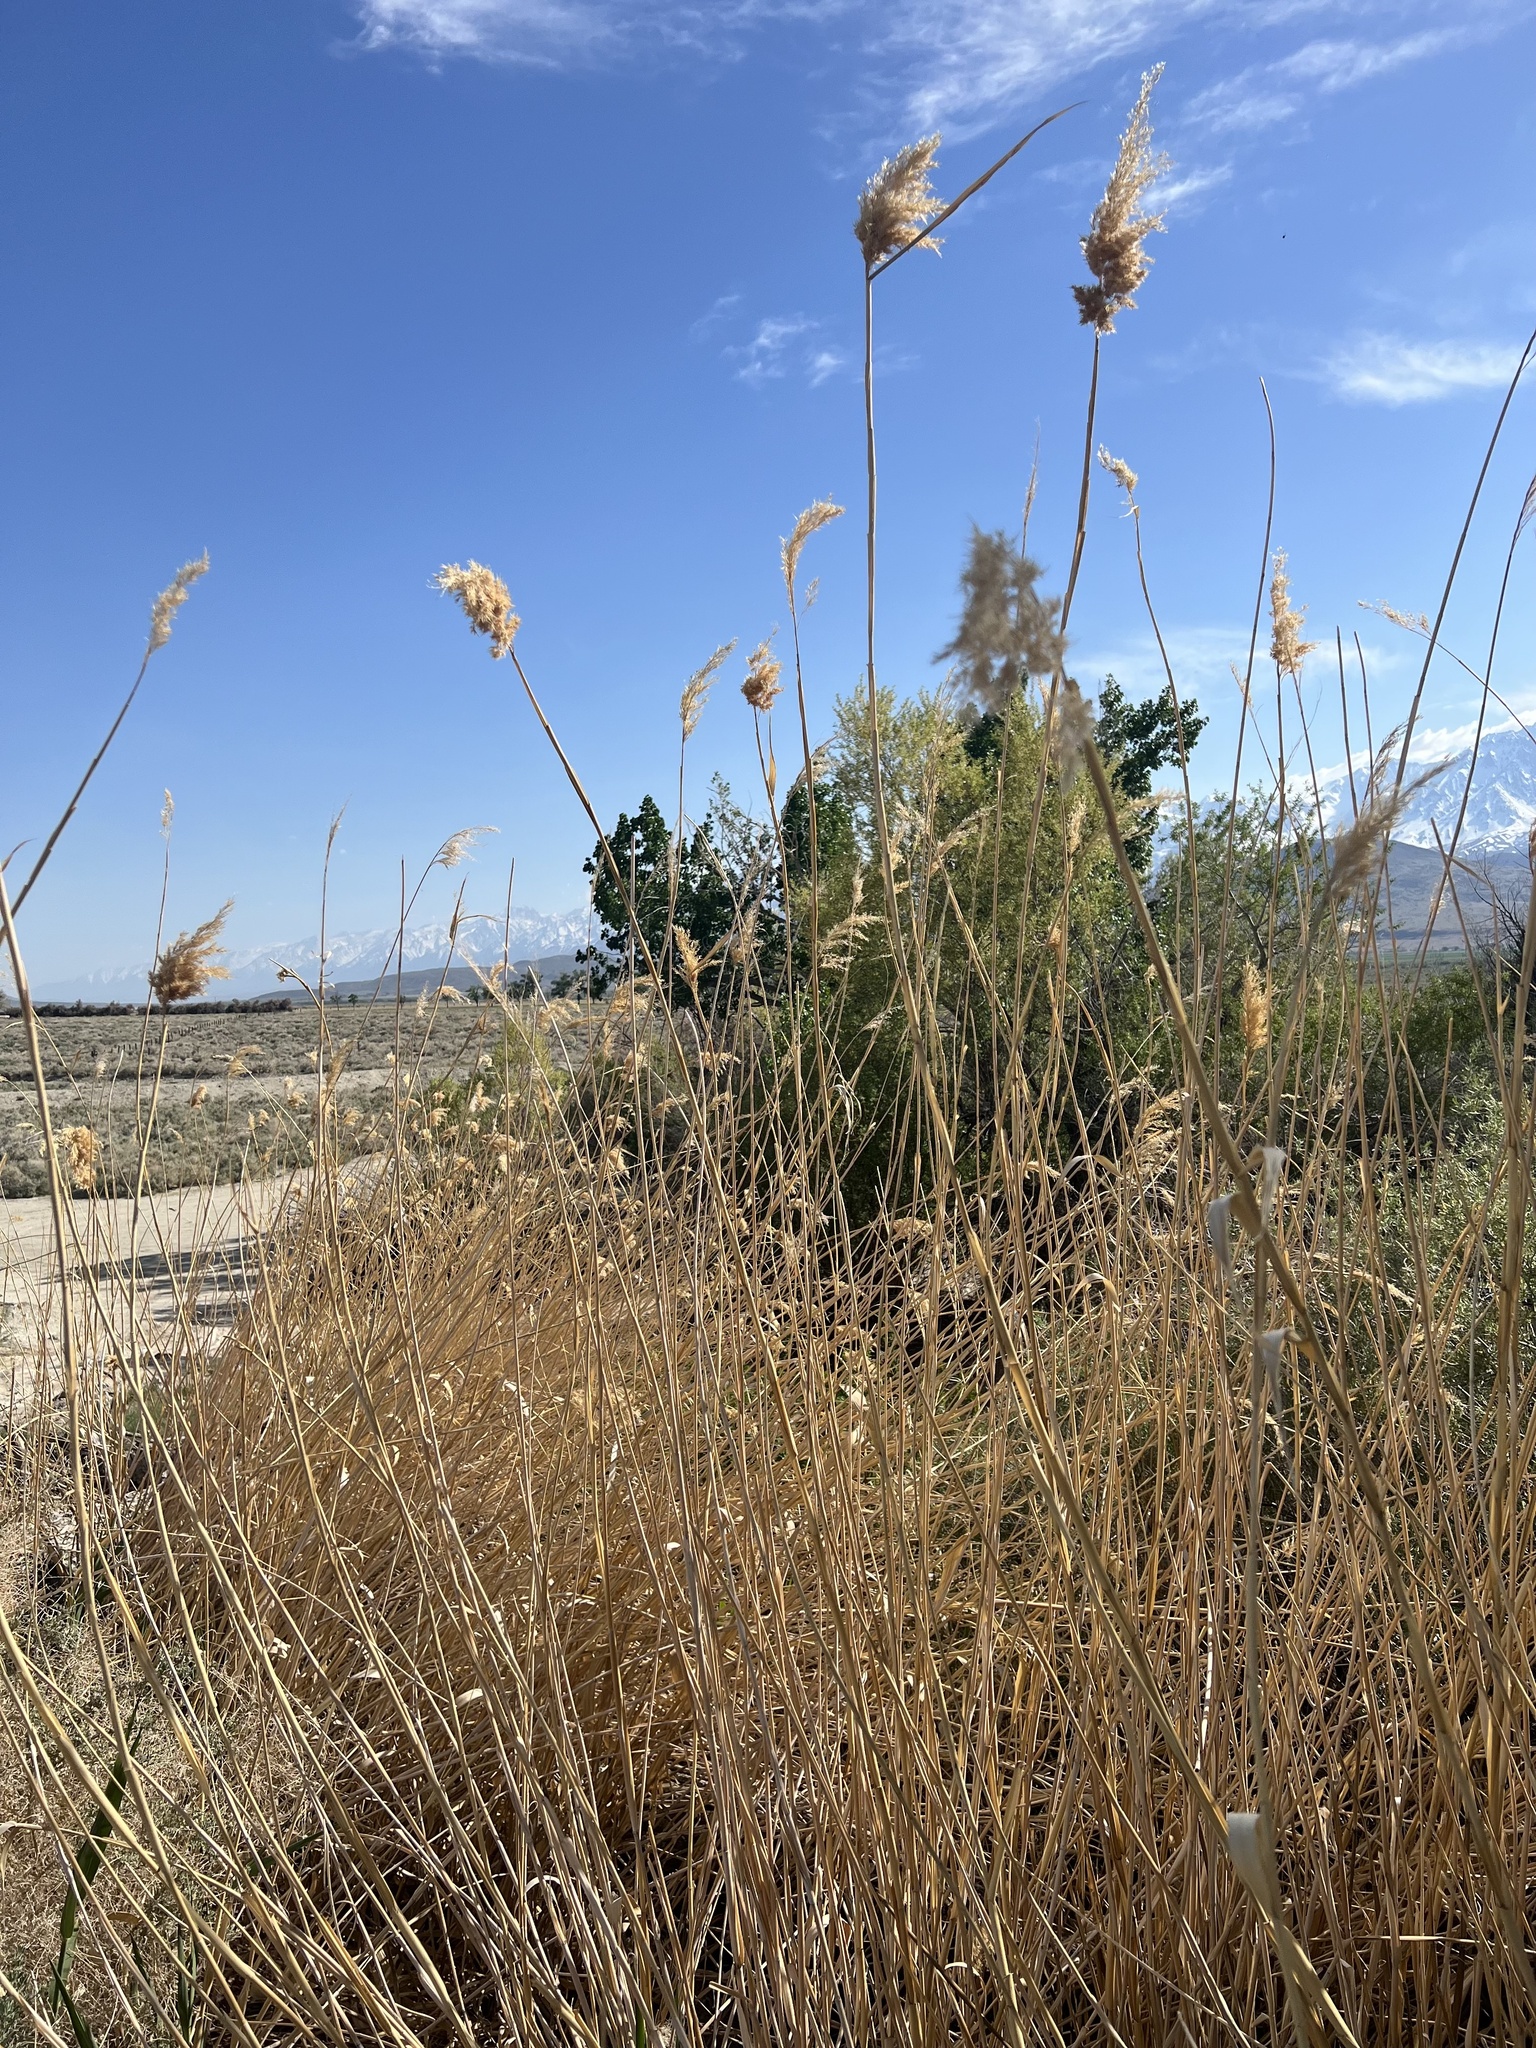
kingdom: Plantae
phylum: Tracheophyta
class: Liliopsida
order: Poales
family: Poaceae
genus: Phragmites
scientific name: Phragmites australis
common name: Common reed
